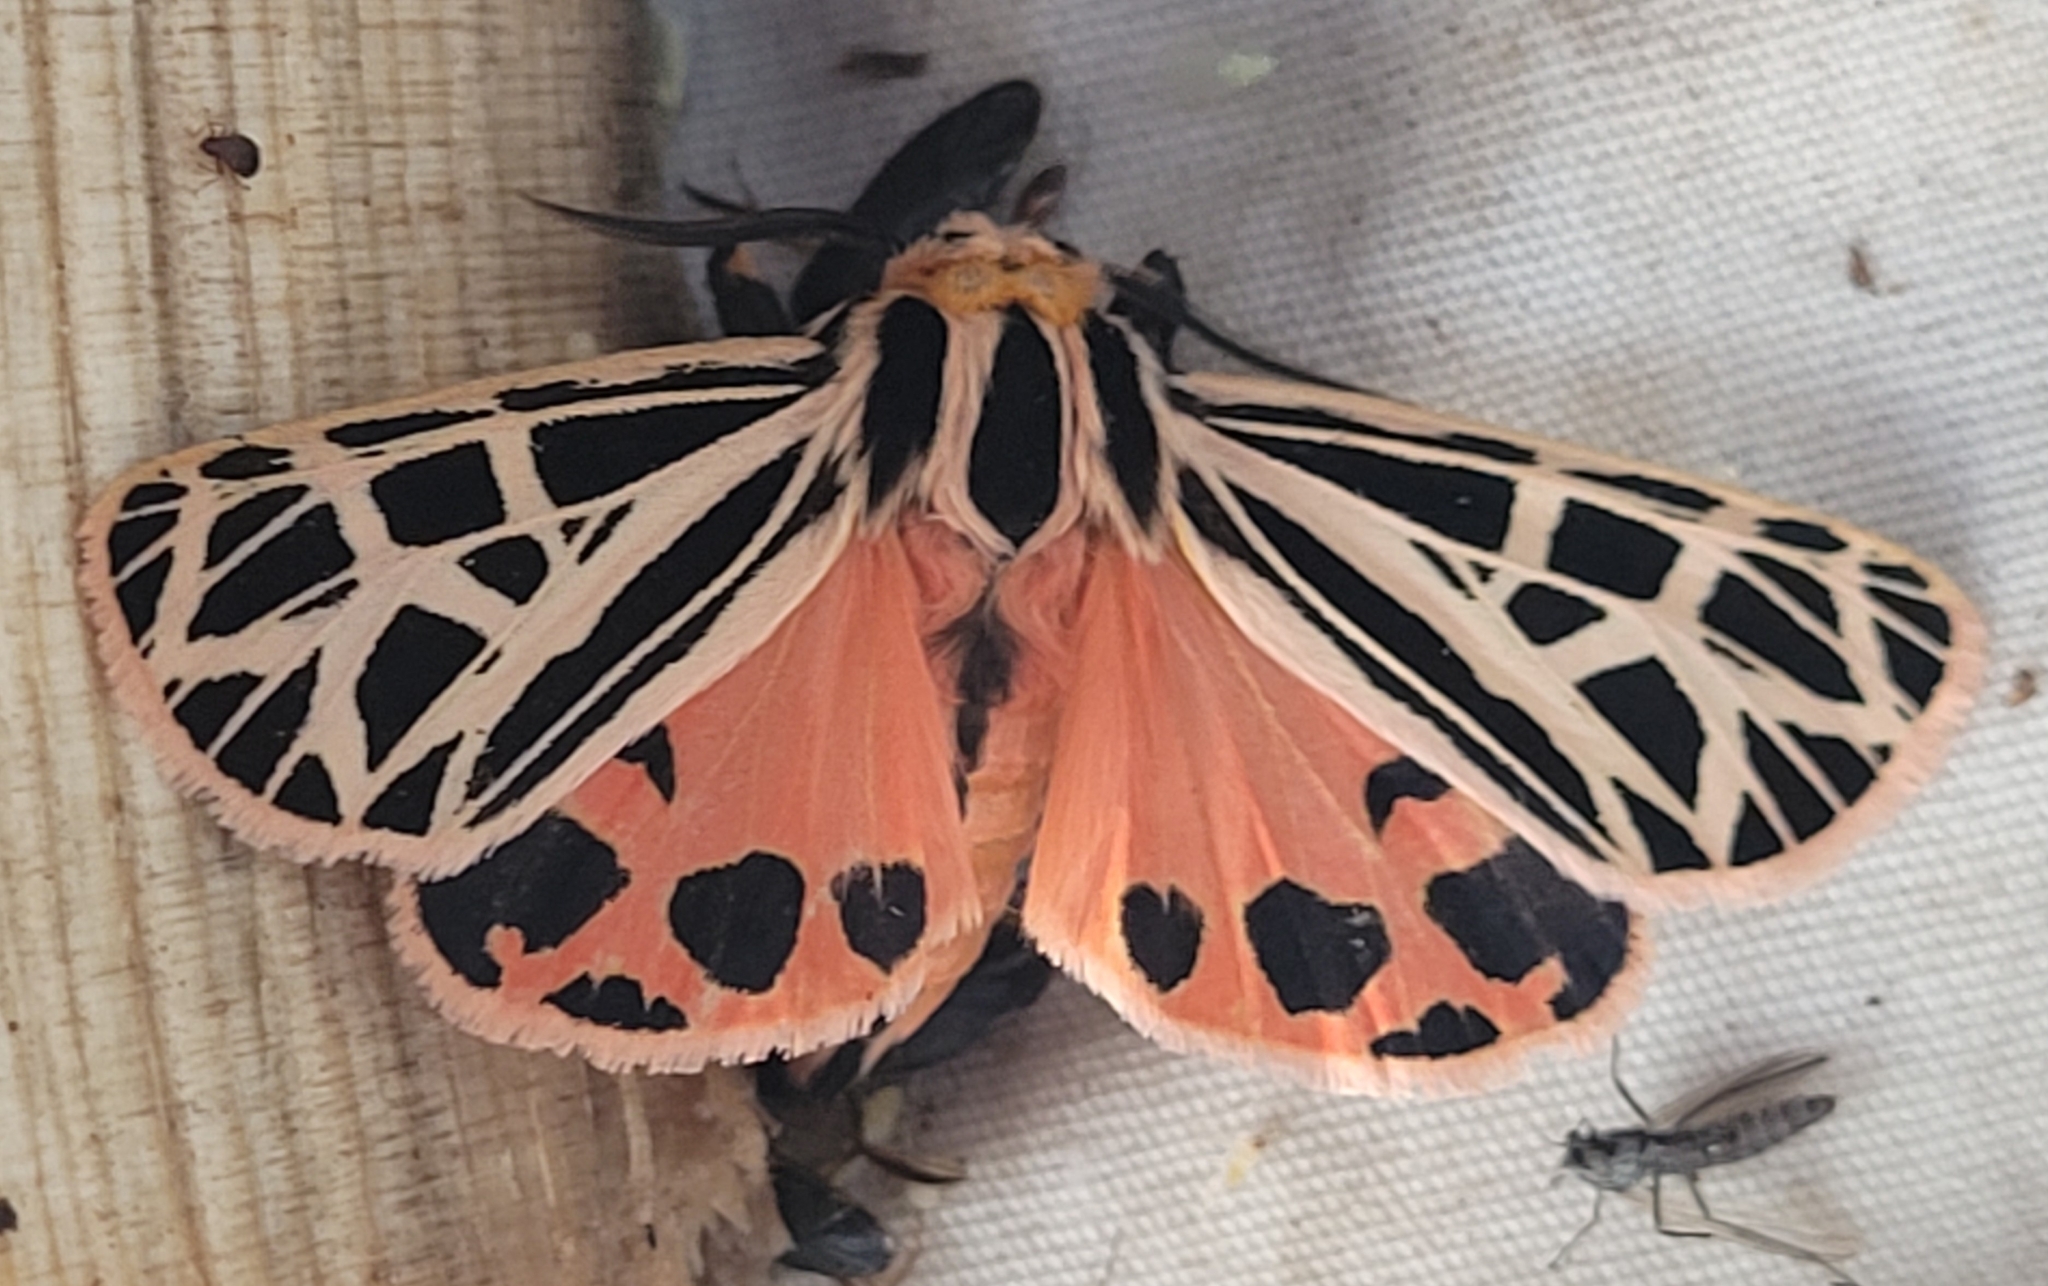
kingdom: Animalia
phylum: Arthropoda
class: Insecta
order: Lepidoptera
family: Erebidae
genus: Grammia
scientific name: Grammia parthenice
